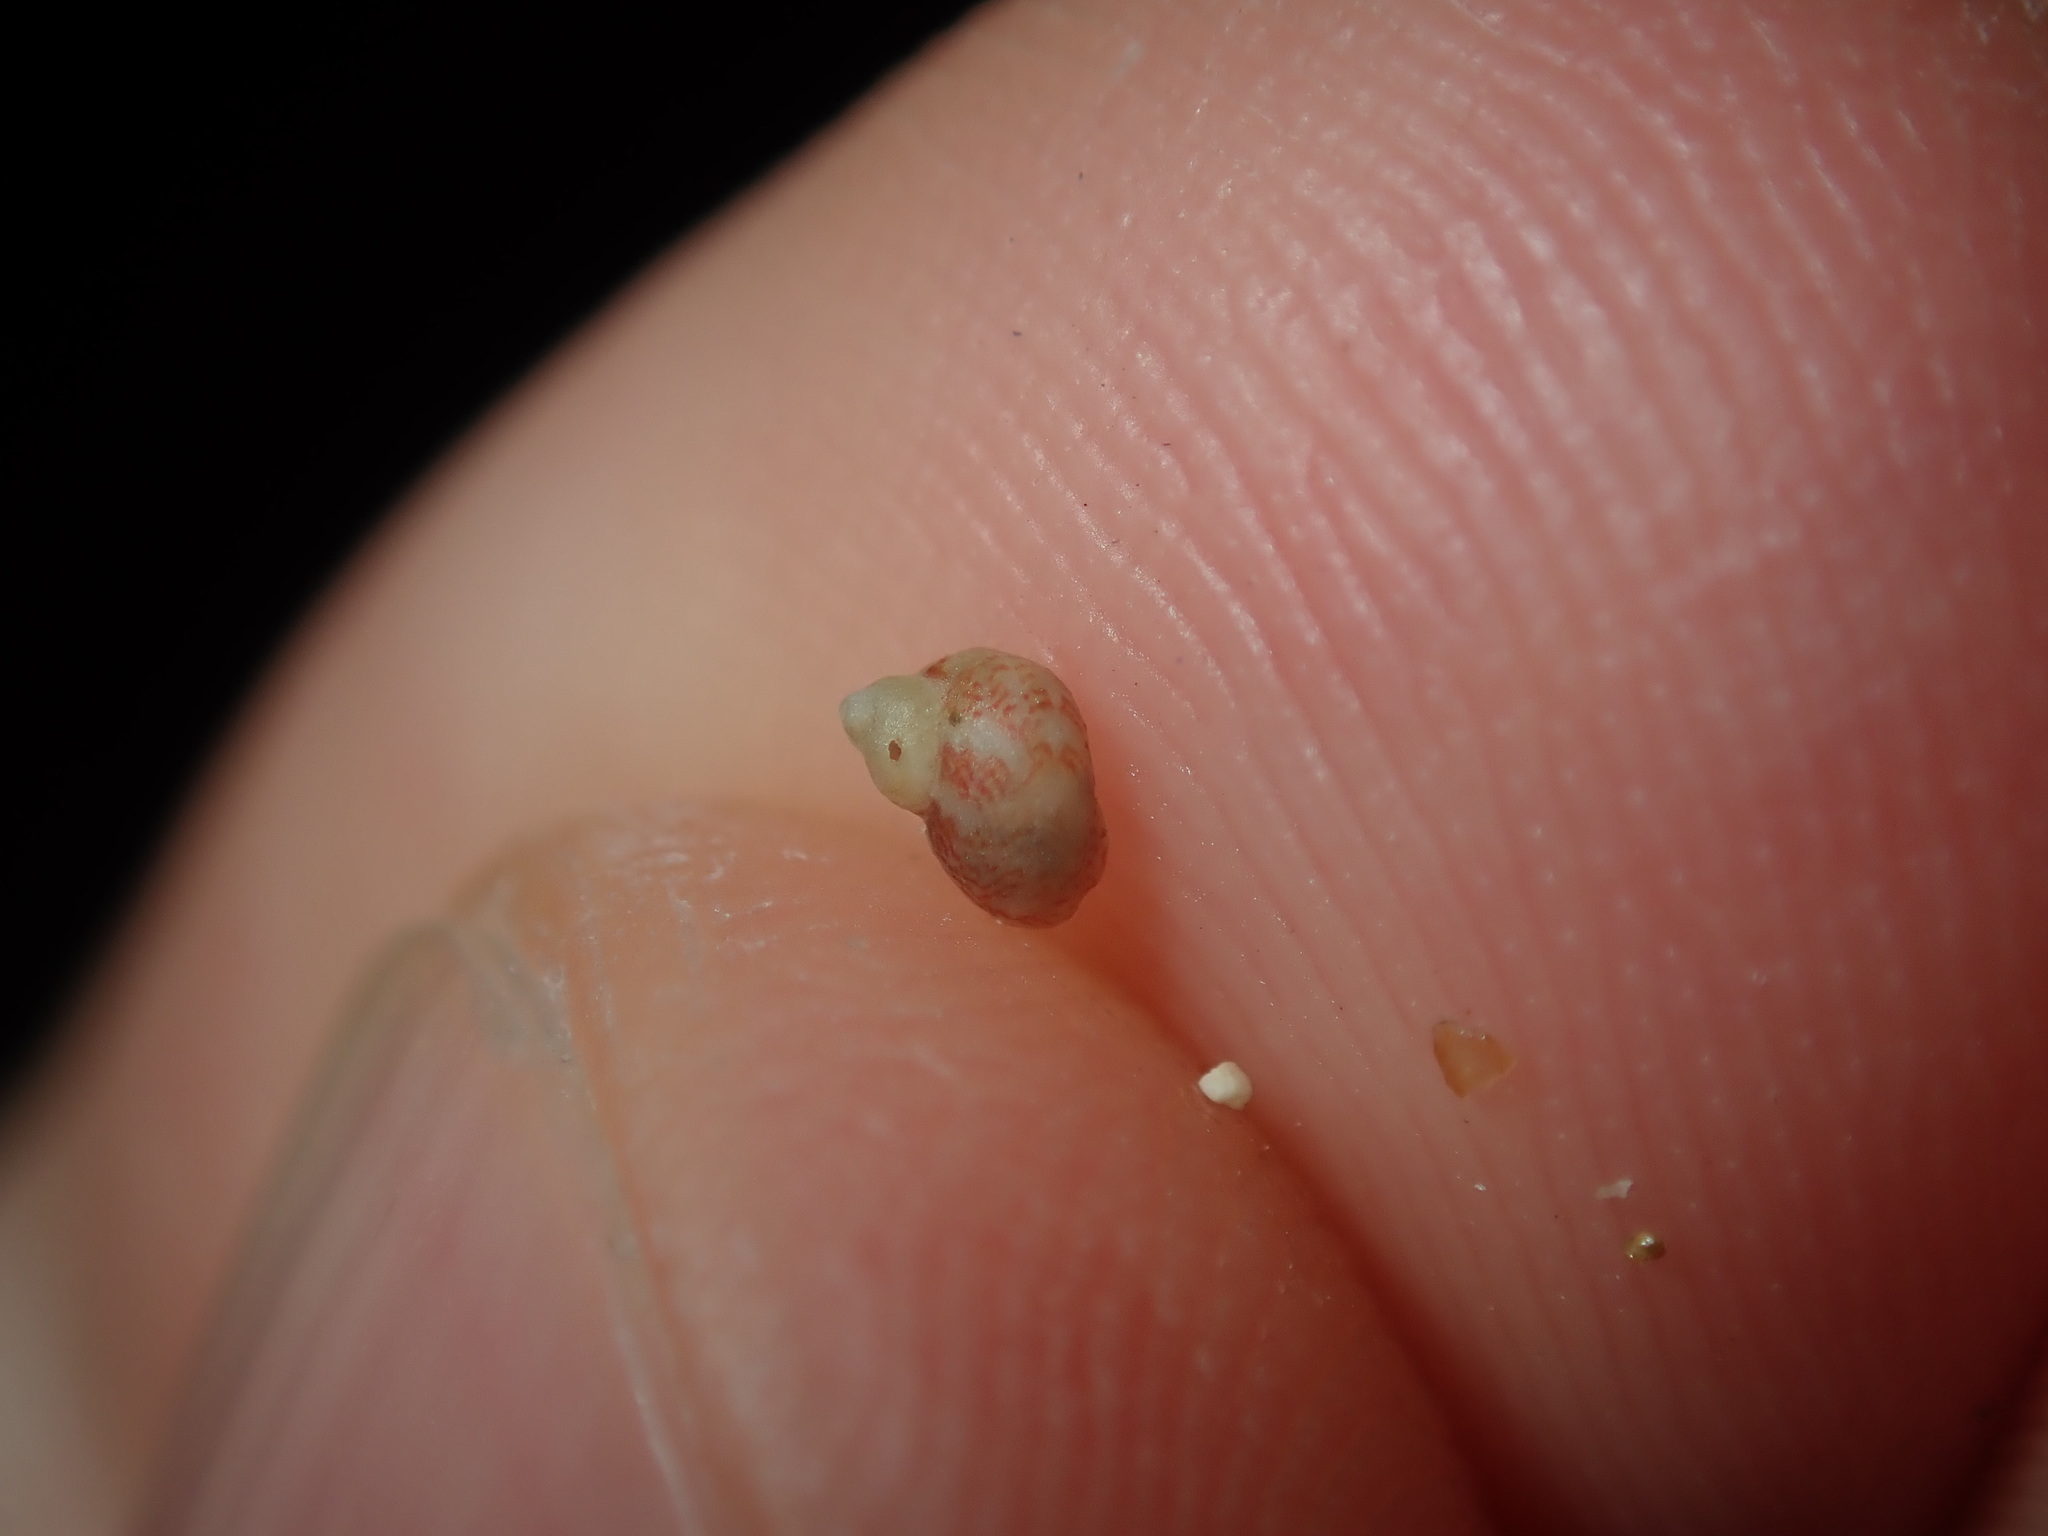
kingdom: Animalia
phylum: Mollusca
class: Gastropoda
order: Trochida
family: Trochidae
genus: Cantharidella
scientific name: Cantharidella picturata
